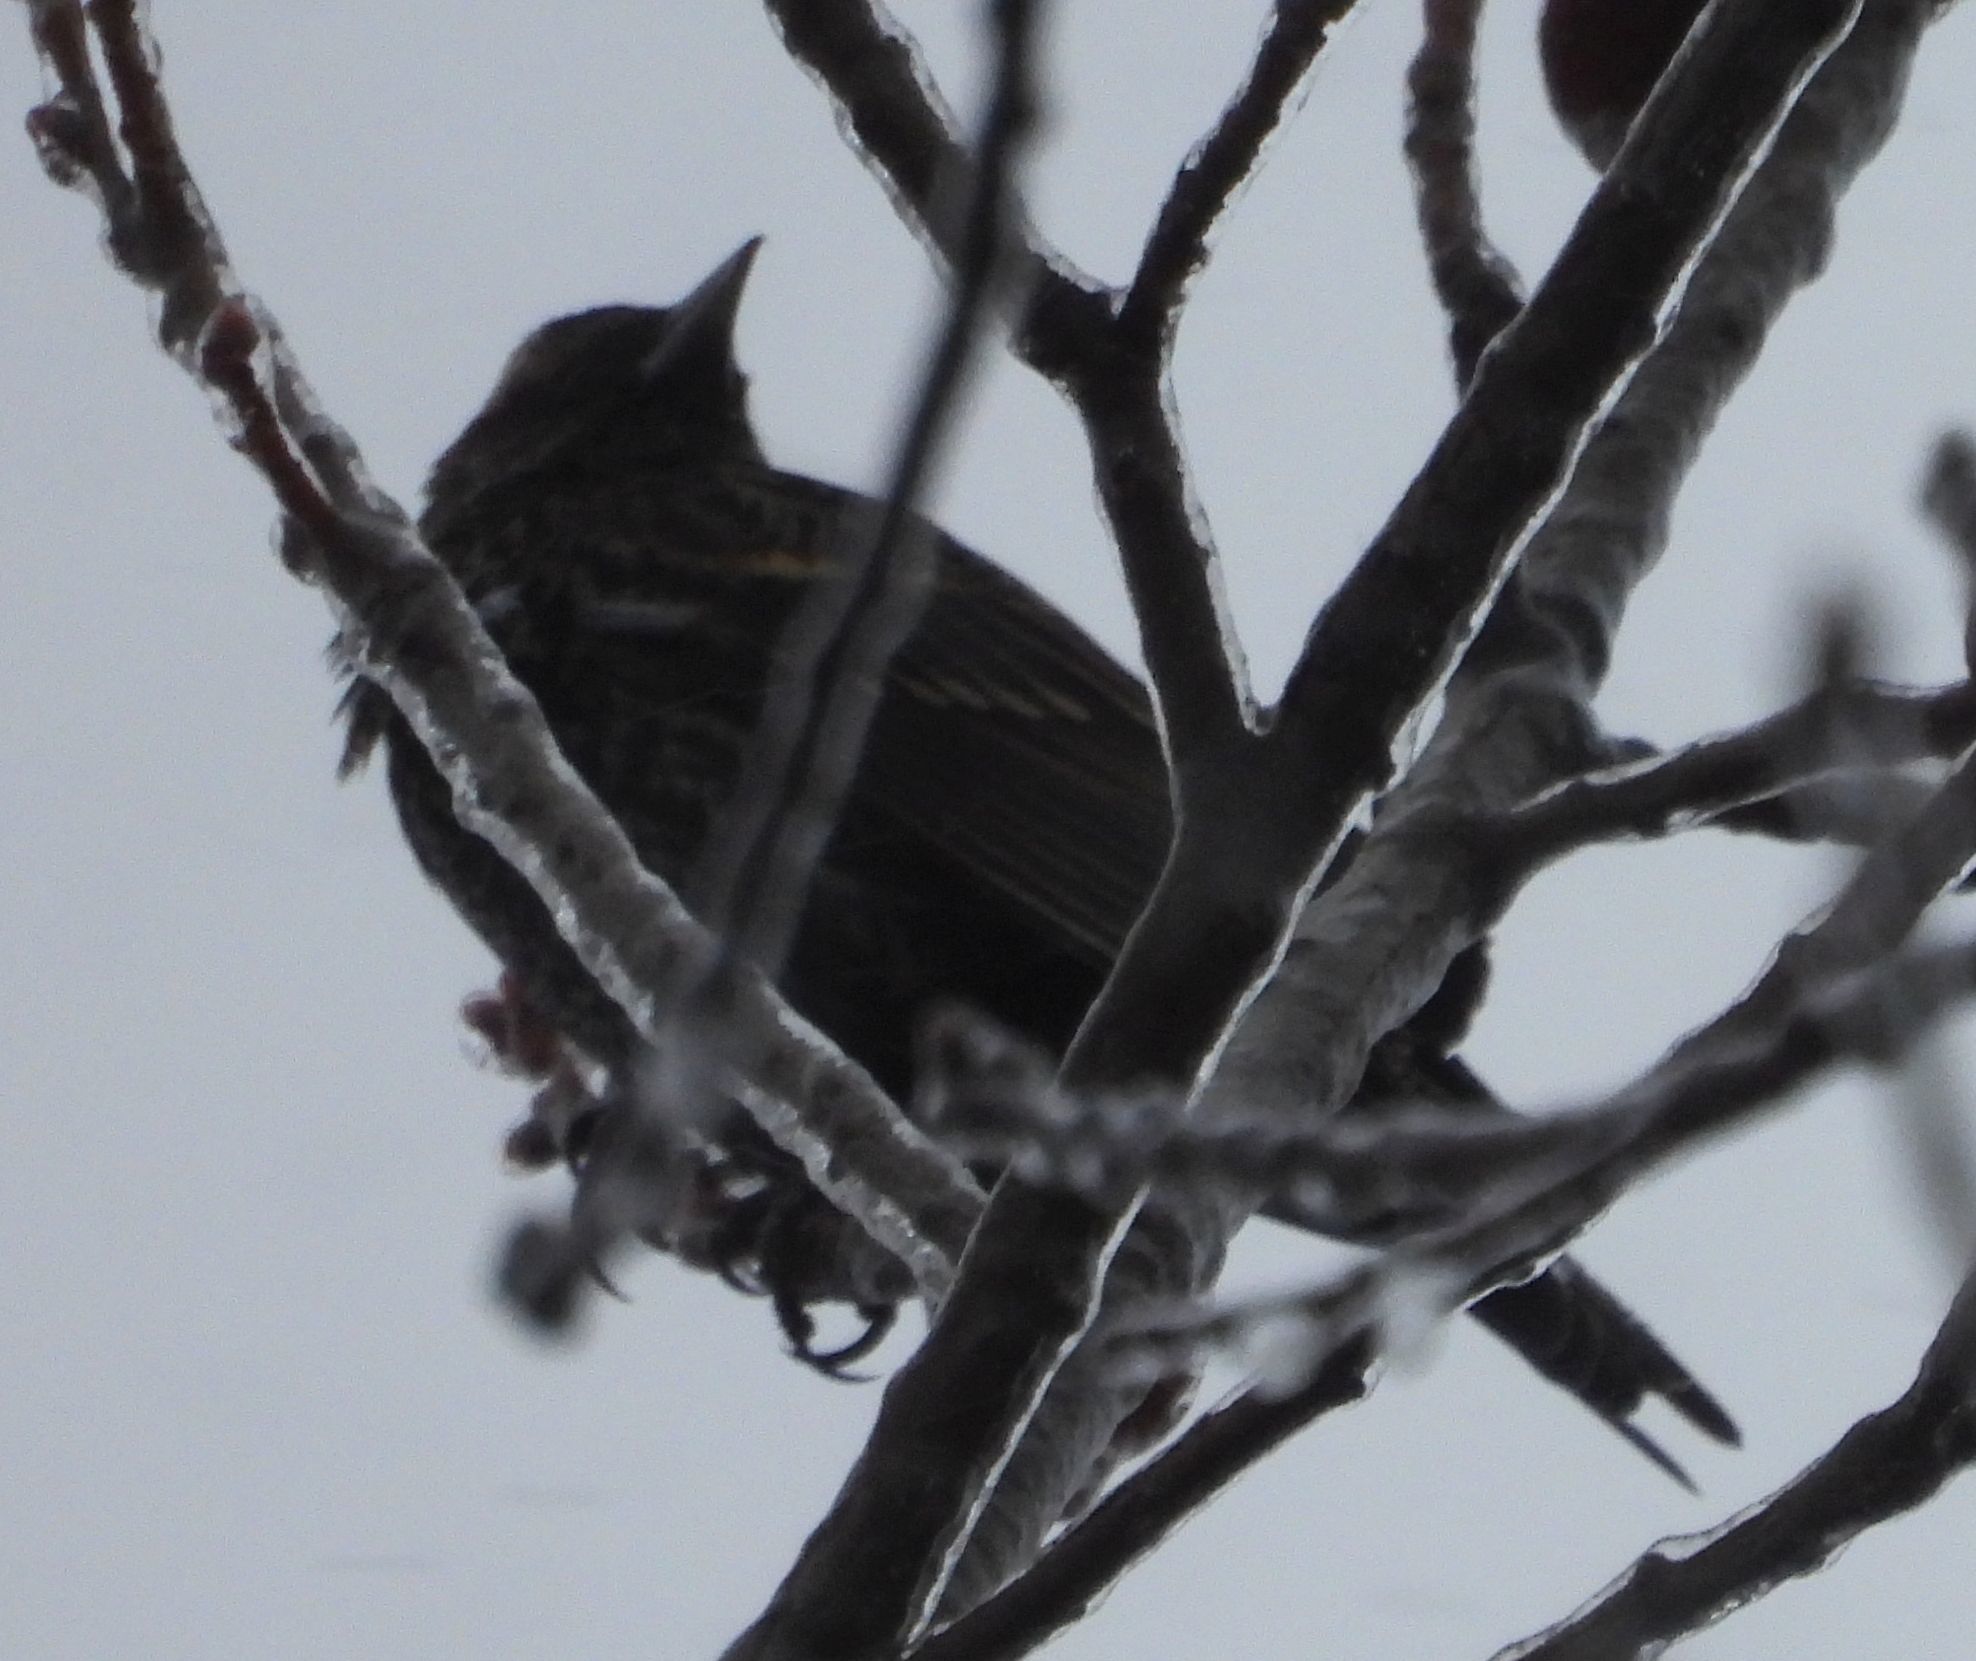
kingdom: Animalia
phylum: Chordata
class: Aves
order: Passeriformes
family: Icteridae
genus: Agelaius
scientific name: Agelaius phoeniceus
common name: Red-winged blackbird
